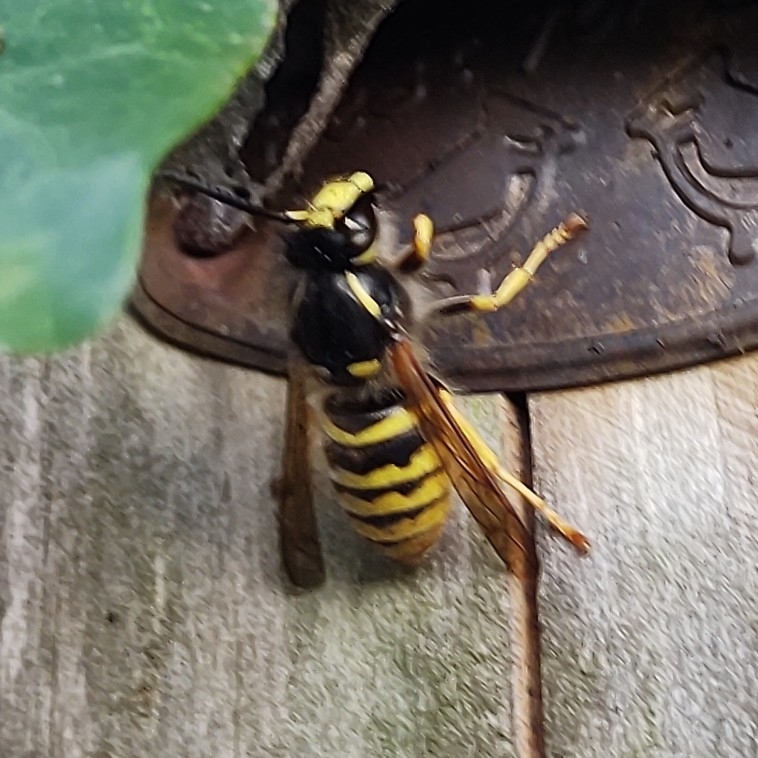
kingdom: Animalia
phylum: Arthropoda
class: Insecta
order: Hymenoptera
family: Vespidae
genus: Dolichovespula
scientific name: Dolichovespula sylvestris
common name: Tree wasp
